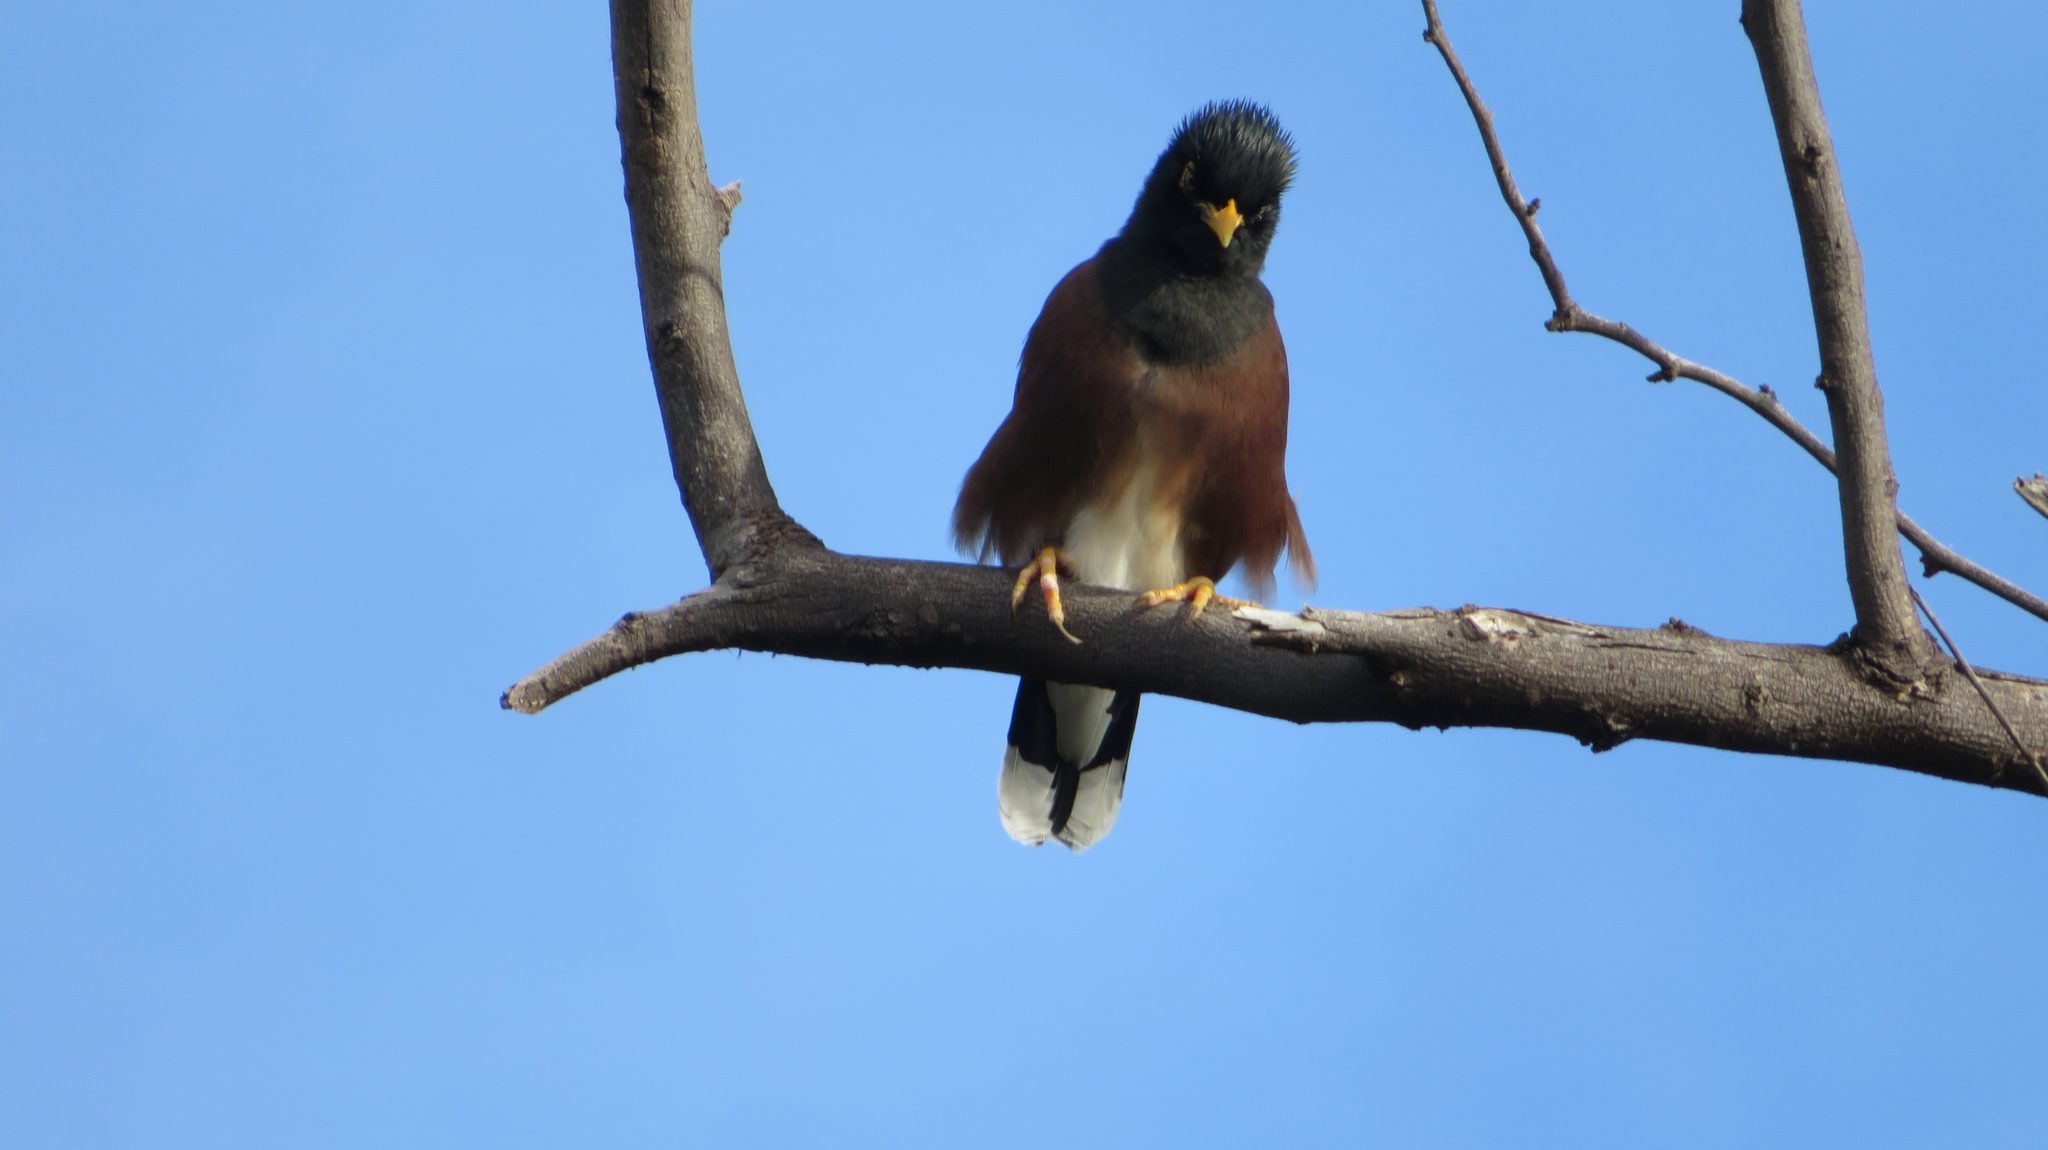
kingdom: Animalia
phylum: Chordata
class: Aves
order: Passeriformes
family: Sturnidae
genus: Acridotheres
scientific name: Acridotheres tristis
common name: Common myna
